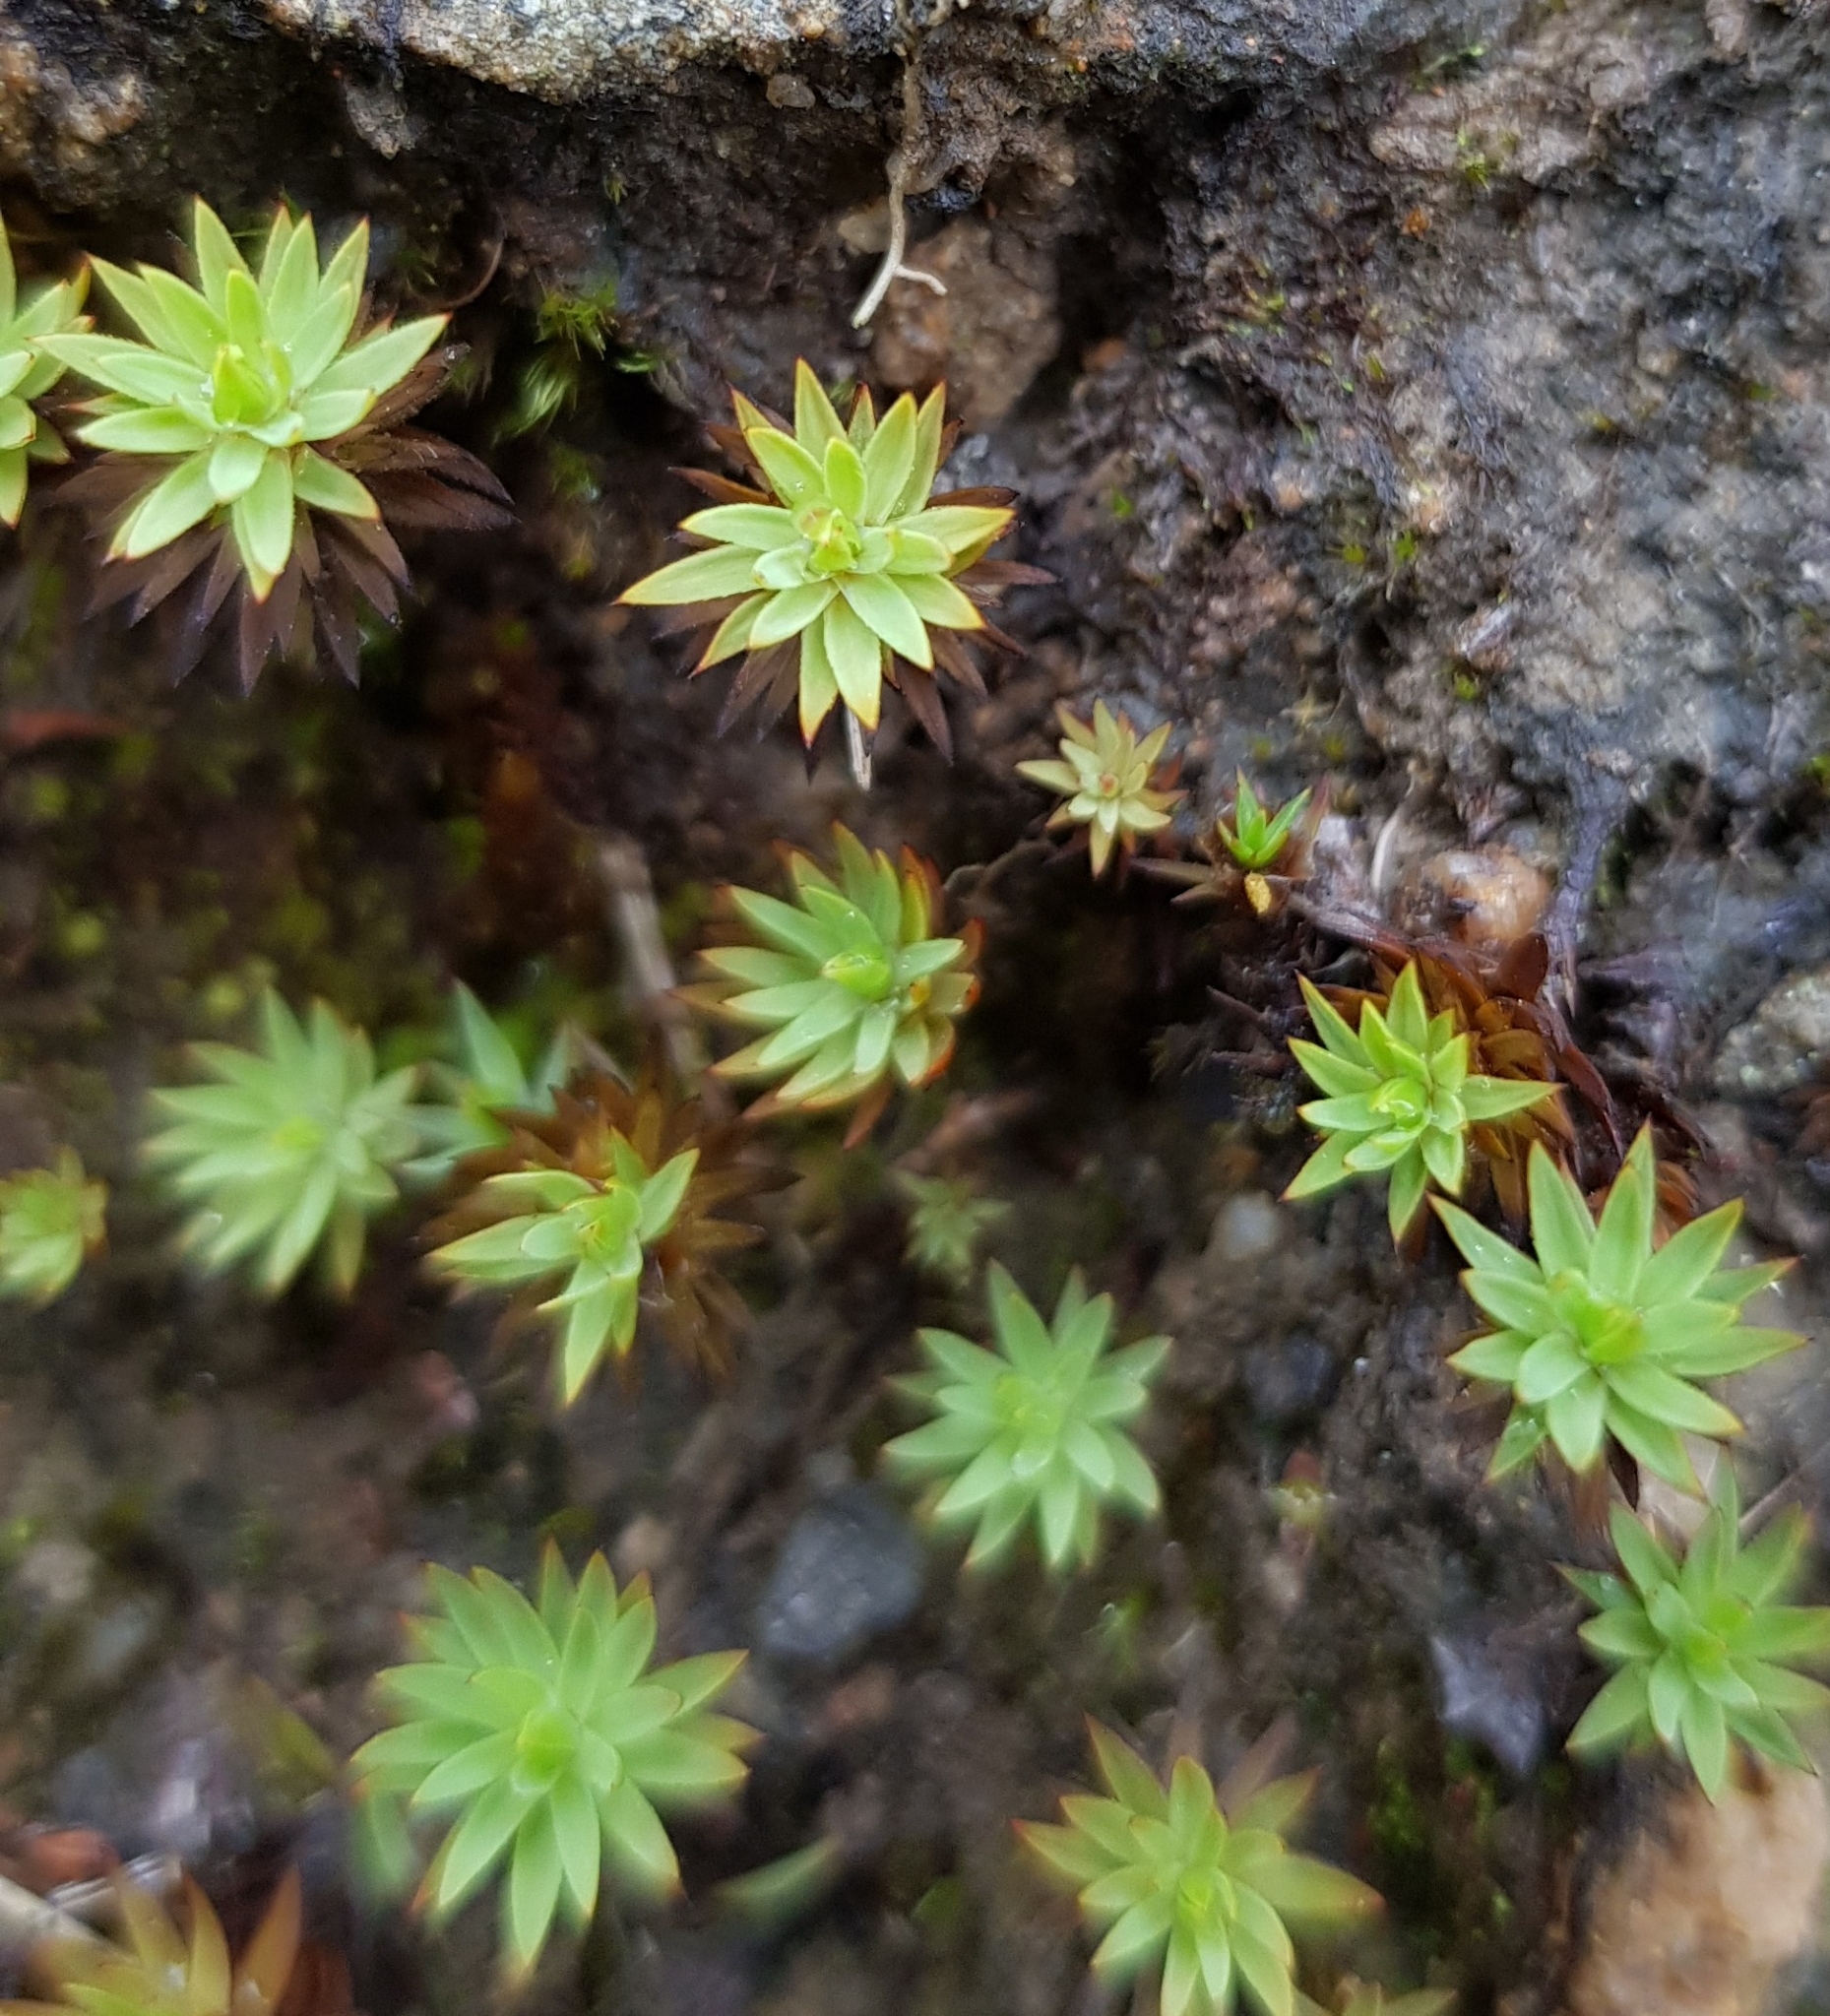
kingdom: Plantae
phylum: Bryophyta
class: Polytrichopsida
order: Polytrichales
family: Polytrichaceae
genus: Pogonatum
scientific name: Pogonatum urnigerum
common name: Urn hair moss
